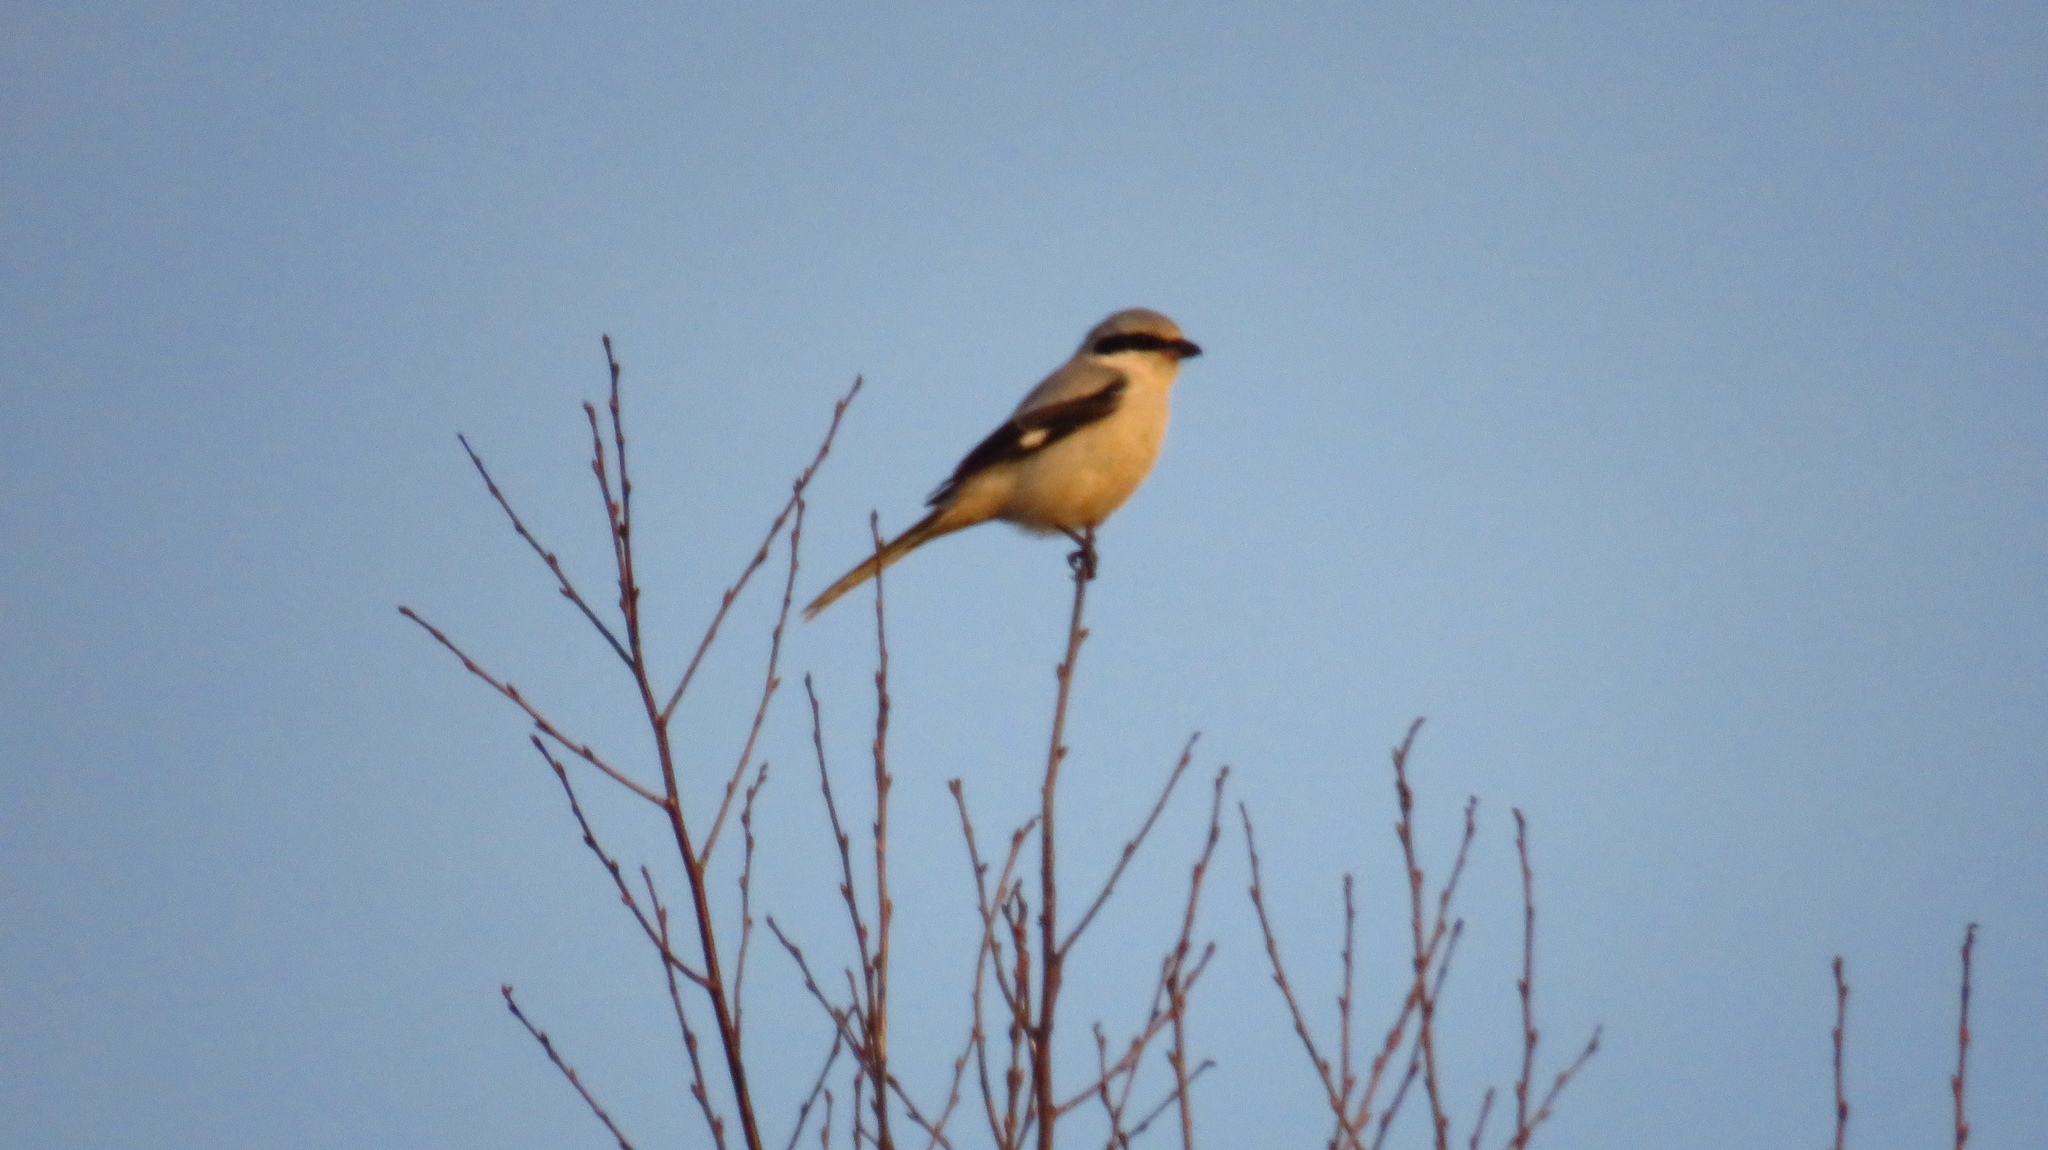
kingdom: Animalia
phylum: Chordata
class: Aves
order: Passeriformes
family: Laniidae
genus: Lanius
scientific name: Lanius excubitor
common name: Great grey shrike
